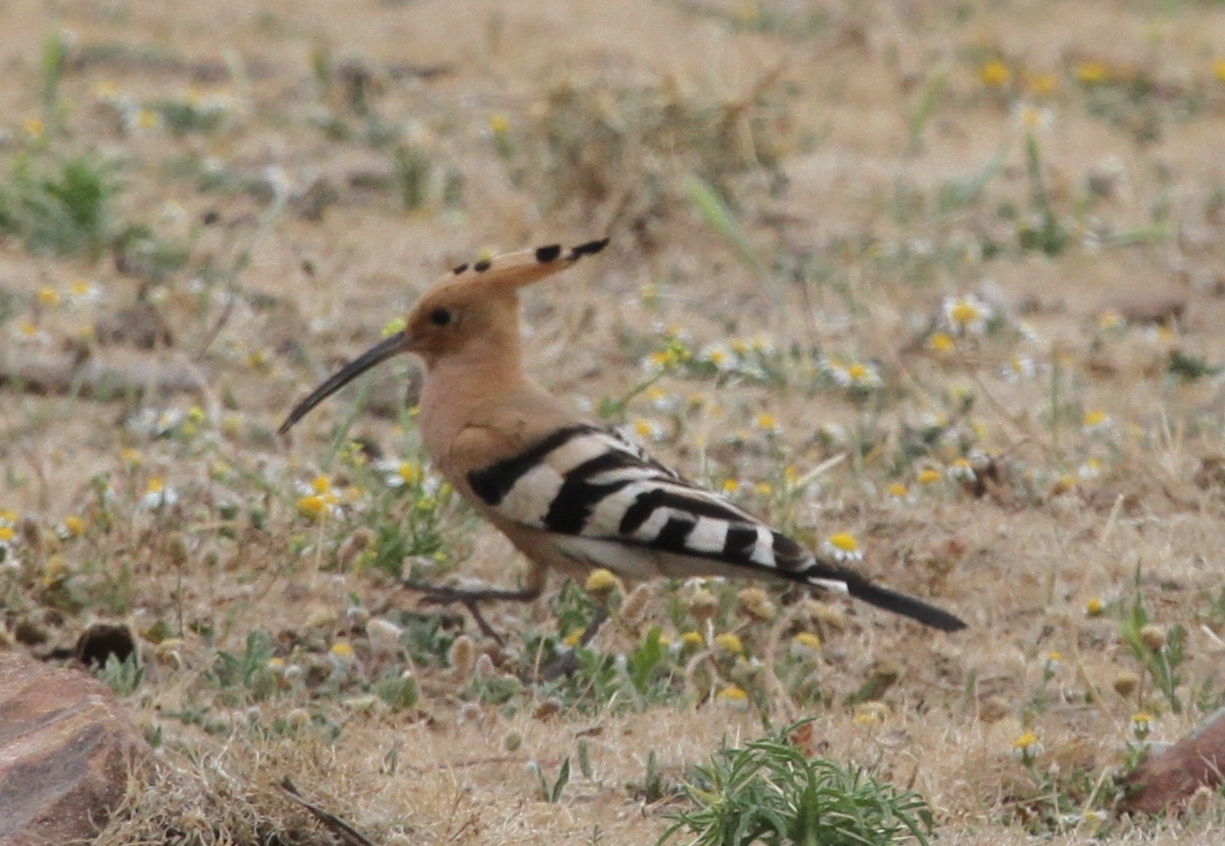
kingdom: Animalia
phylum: Chordata
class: Aves
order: Bucerotiformes
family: Upupidae
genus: Upupa
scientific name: Upupa epops
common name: Eurasian hoopoe
